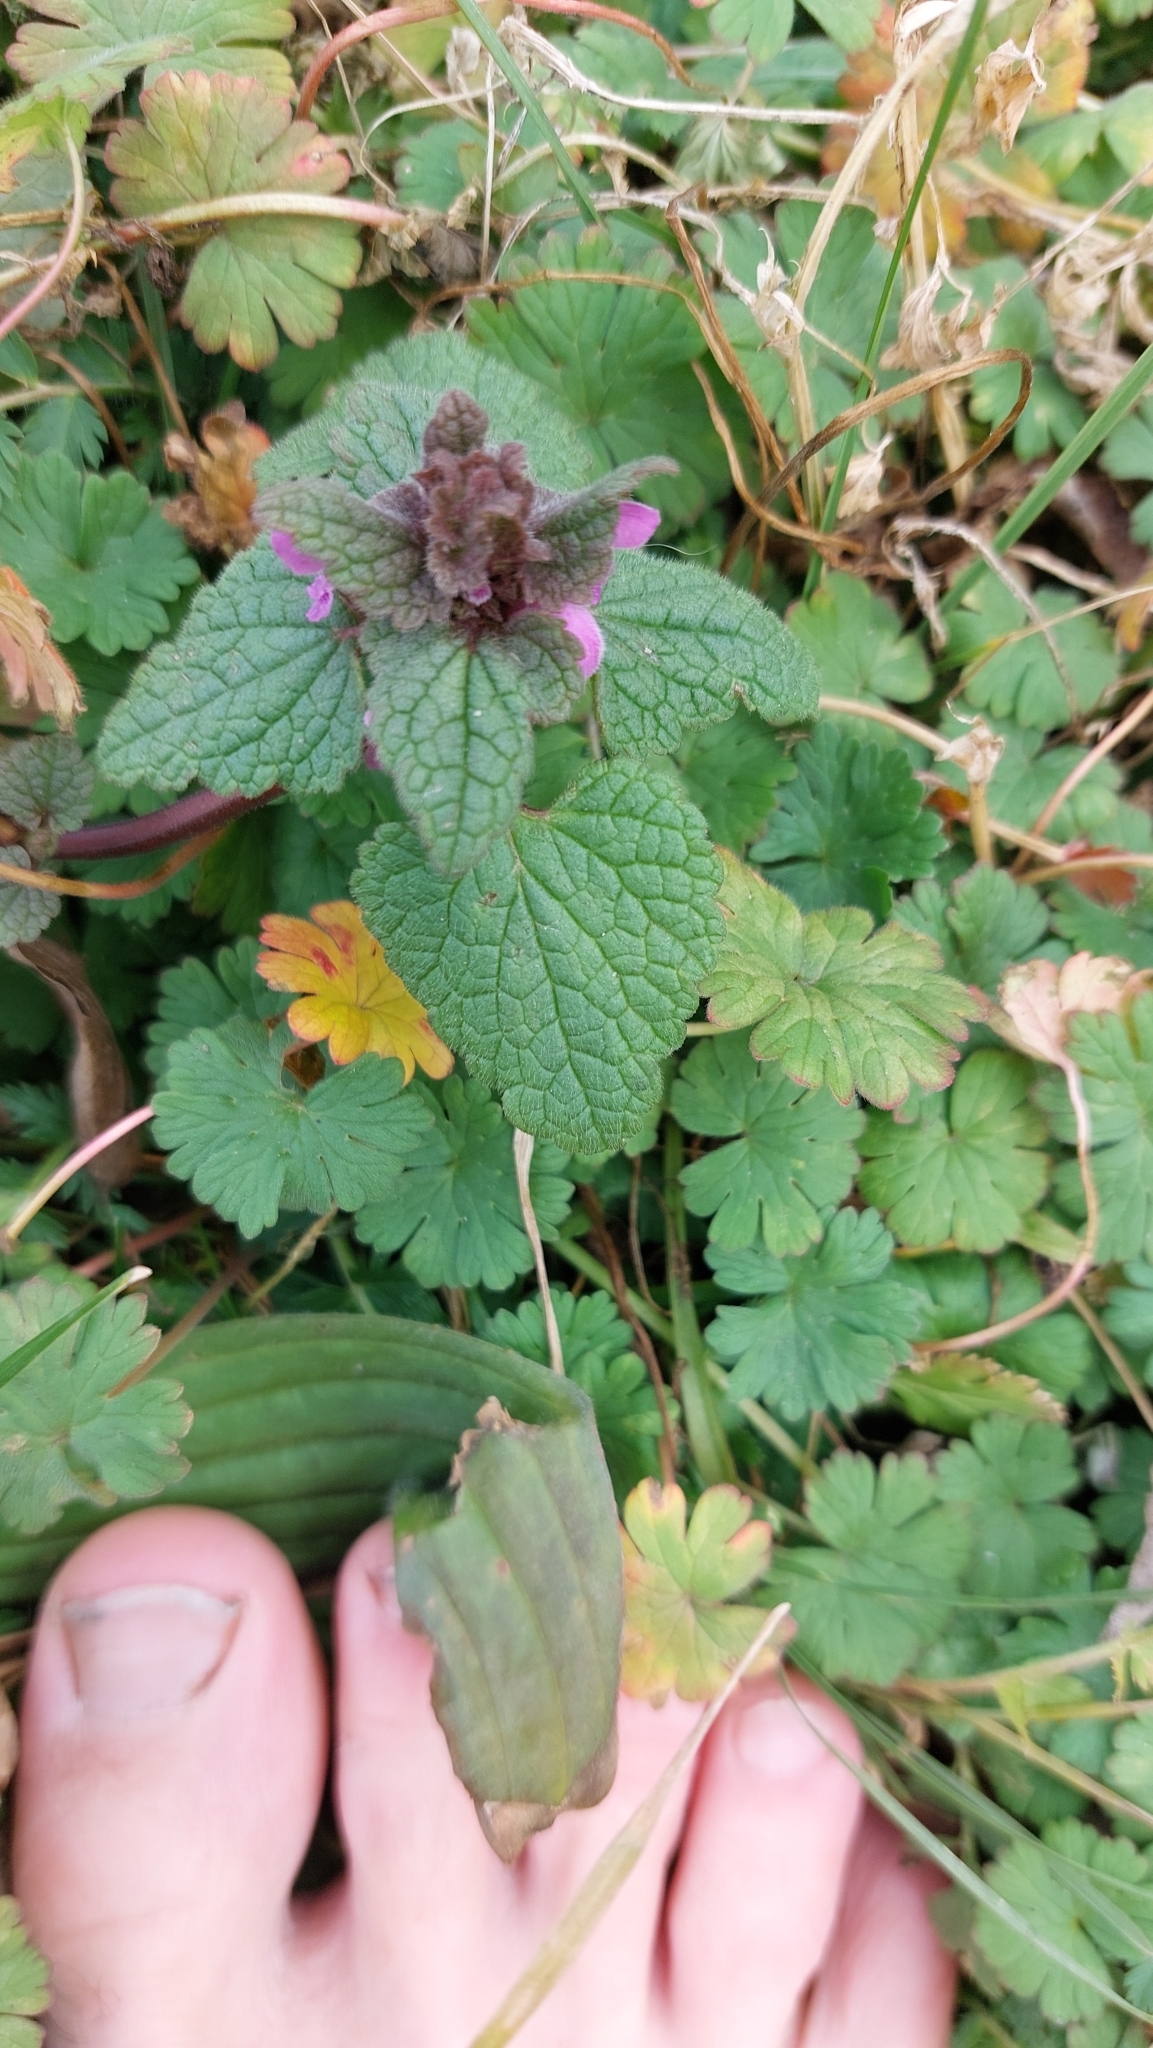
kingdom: Plantae
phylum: Tracheophyta
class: Magnoliopsida
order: Lamiales
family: Lamiaceae
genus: Lamium
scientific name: Lamium purpureum
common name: Red dead-nettle
